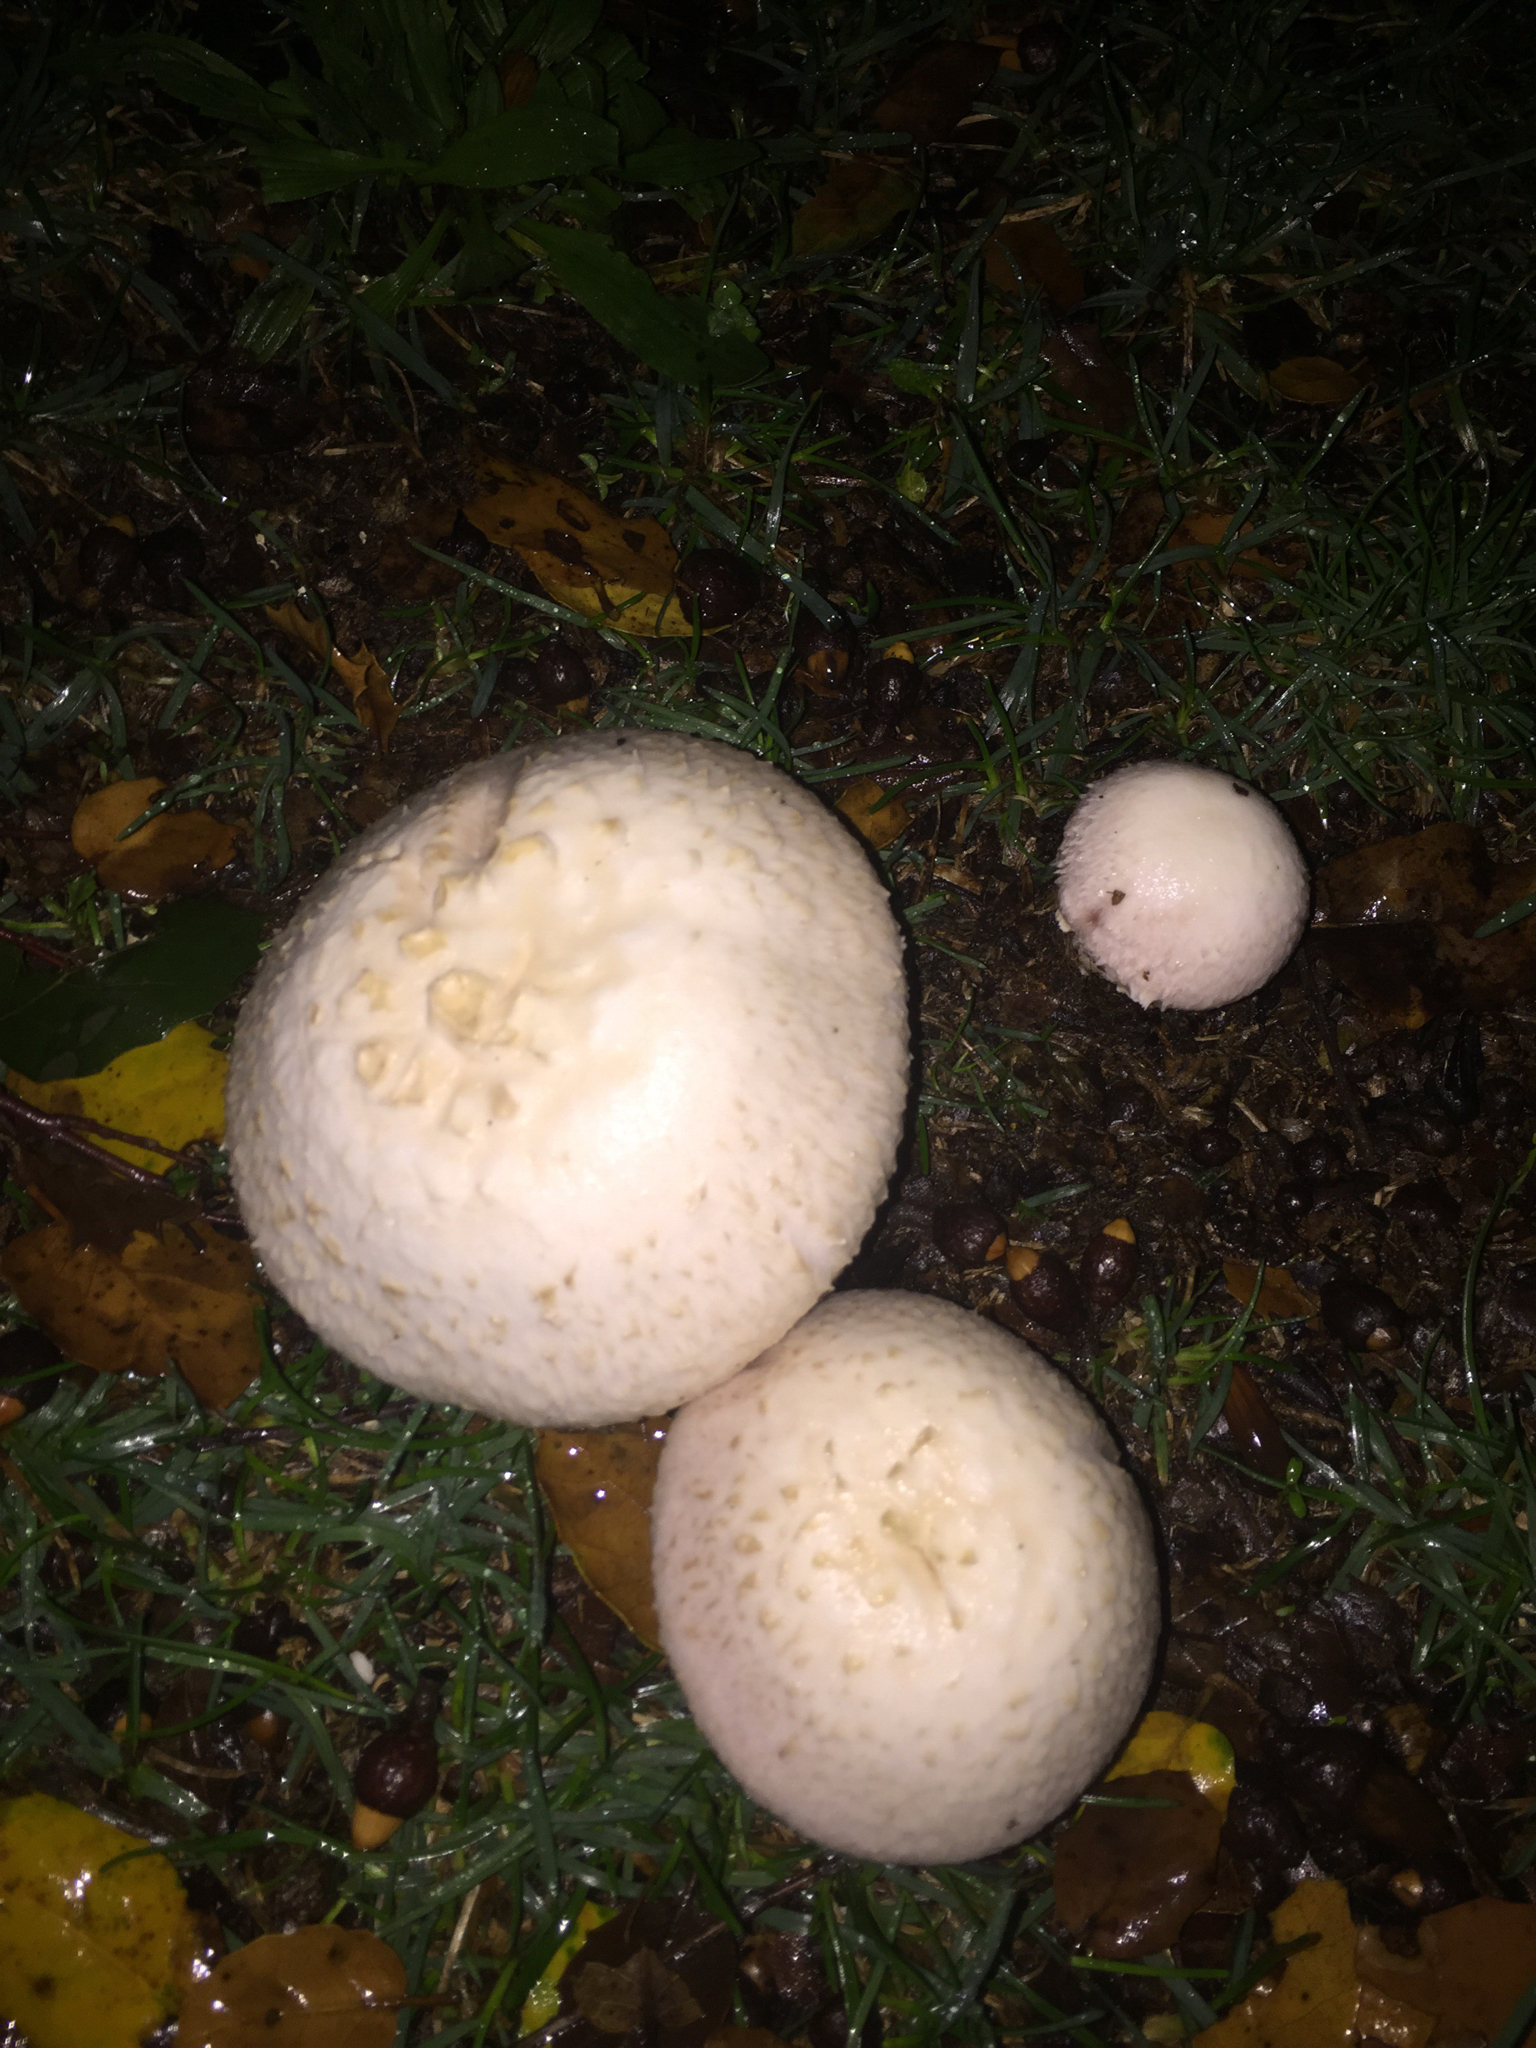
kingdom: Fungi
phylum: Basidiomycota
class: Agaricomycetes
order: Agaricales
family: Agaricaceae
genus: Agaricus
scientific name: Agaricus campestris
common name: Field mushroom
